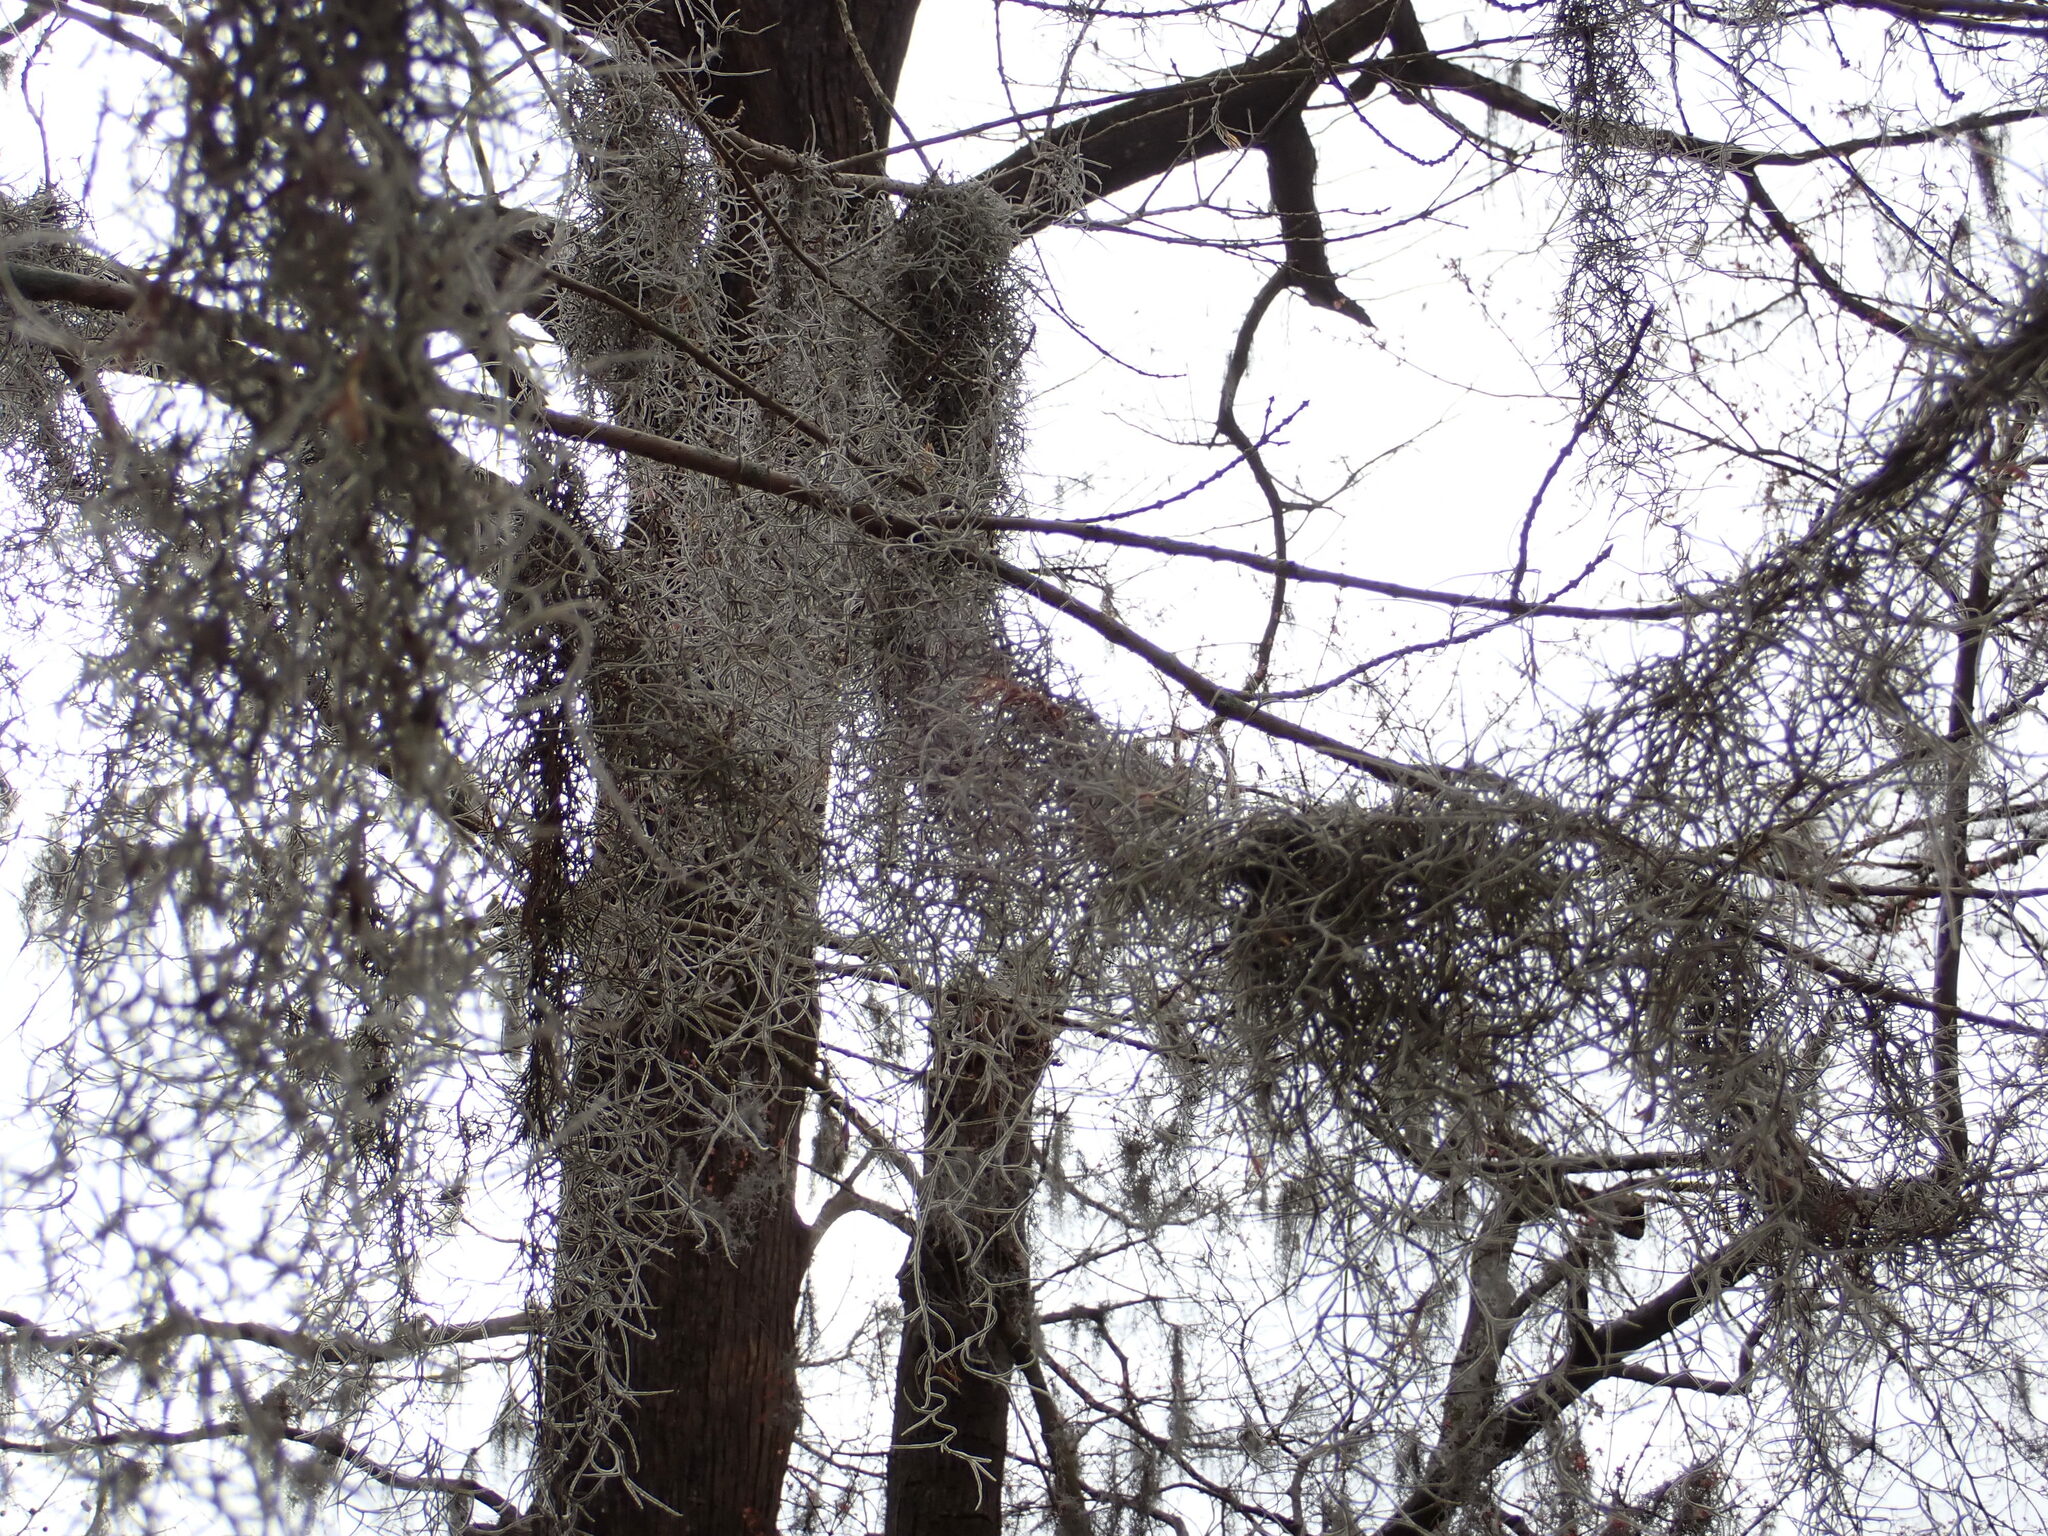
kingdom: Plantae
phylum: Tracheophyta
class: Liliopsida
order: Poales
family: Bromeliaceae
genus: Tillandsia
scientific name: Tillandsia usneoides
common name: Spanish moss
